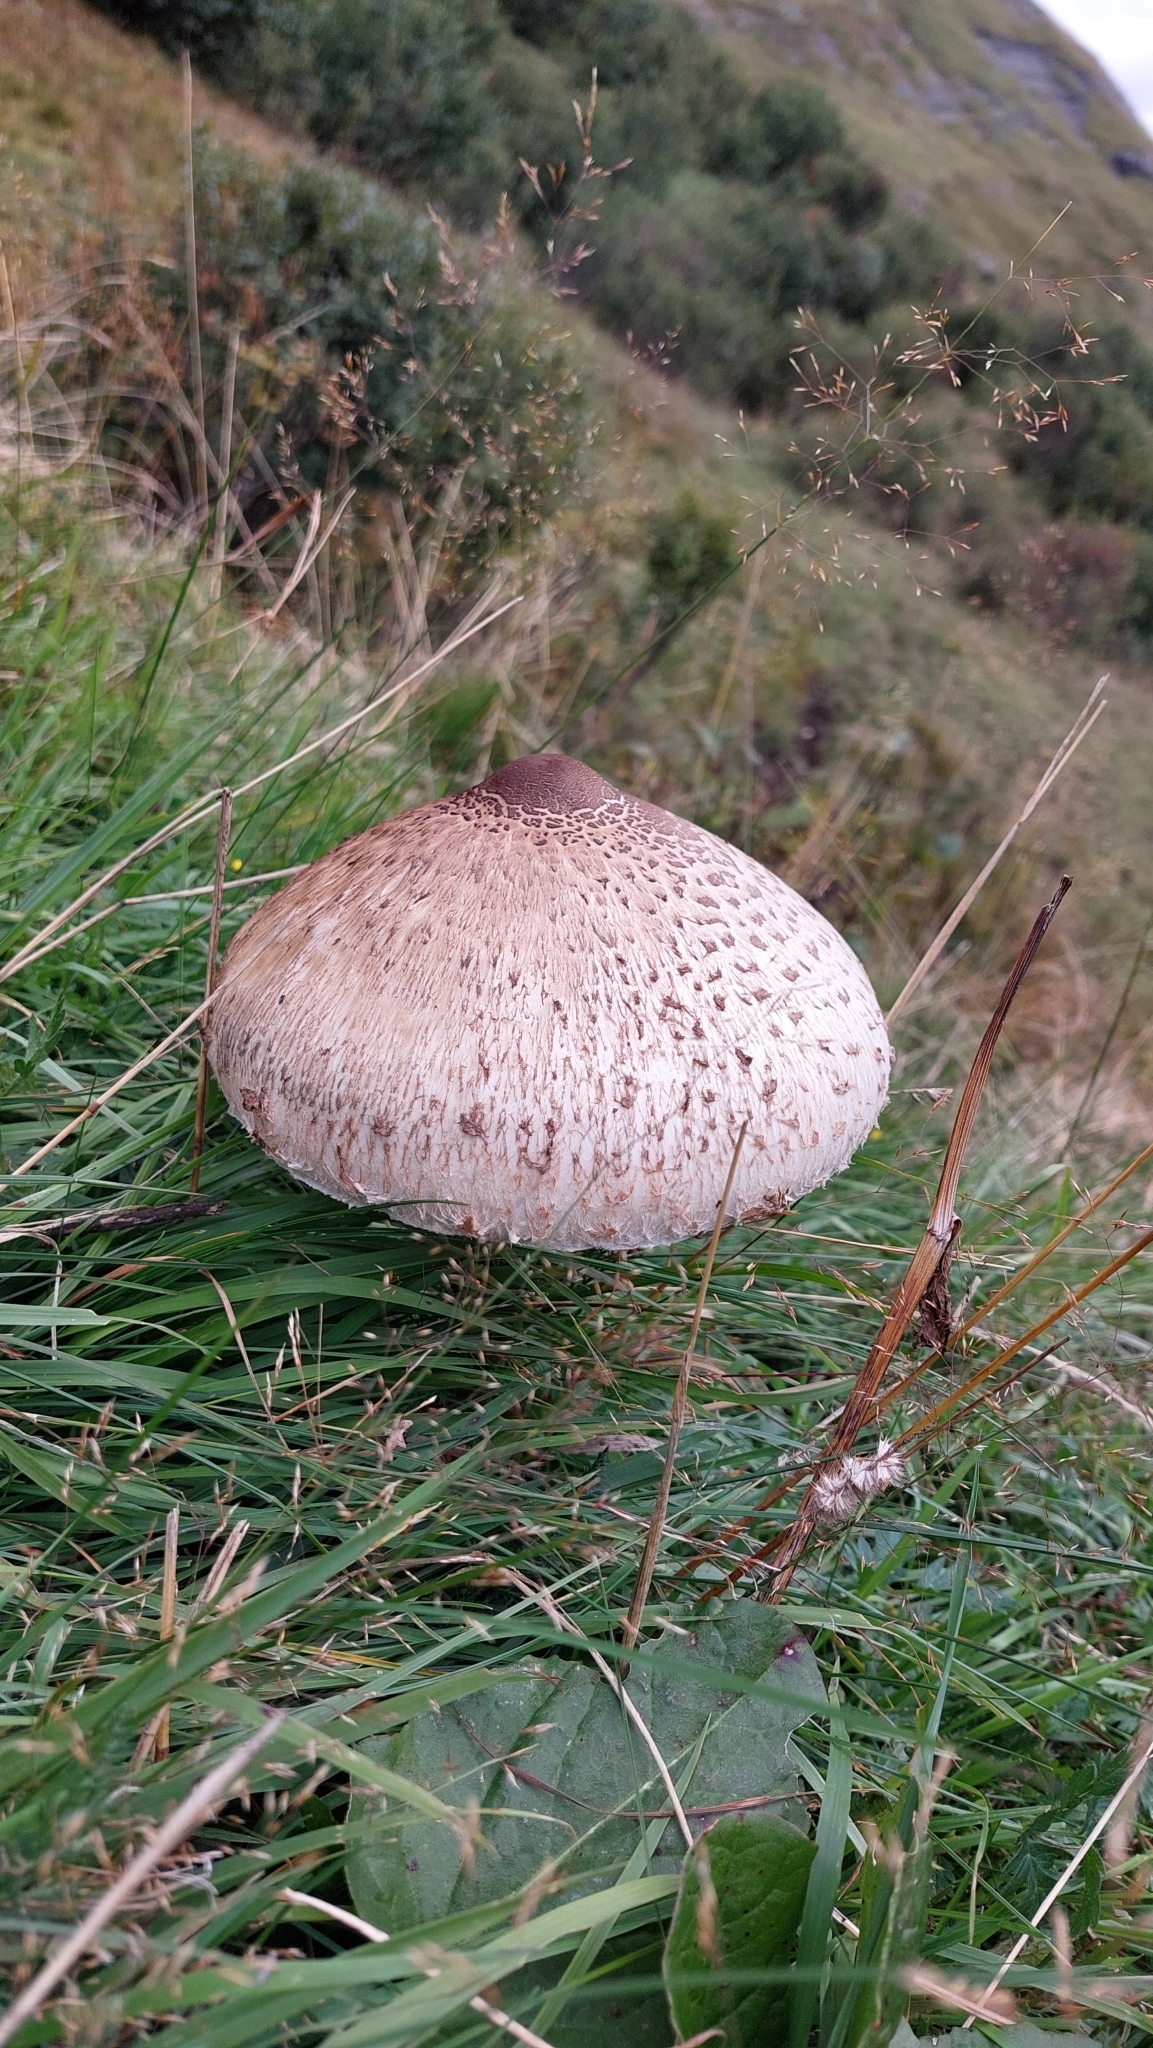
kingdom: Fungi
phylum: Basidiomycota
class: Agaricomycetes
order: Agaricales
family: Agaricaceae
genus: Macrolepiota
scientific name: Macrolepiota procera
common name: Parasol
